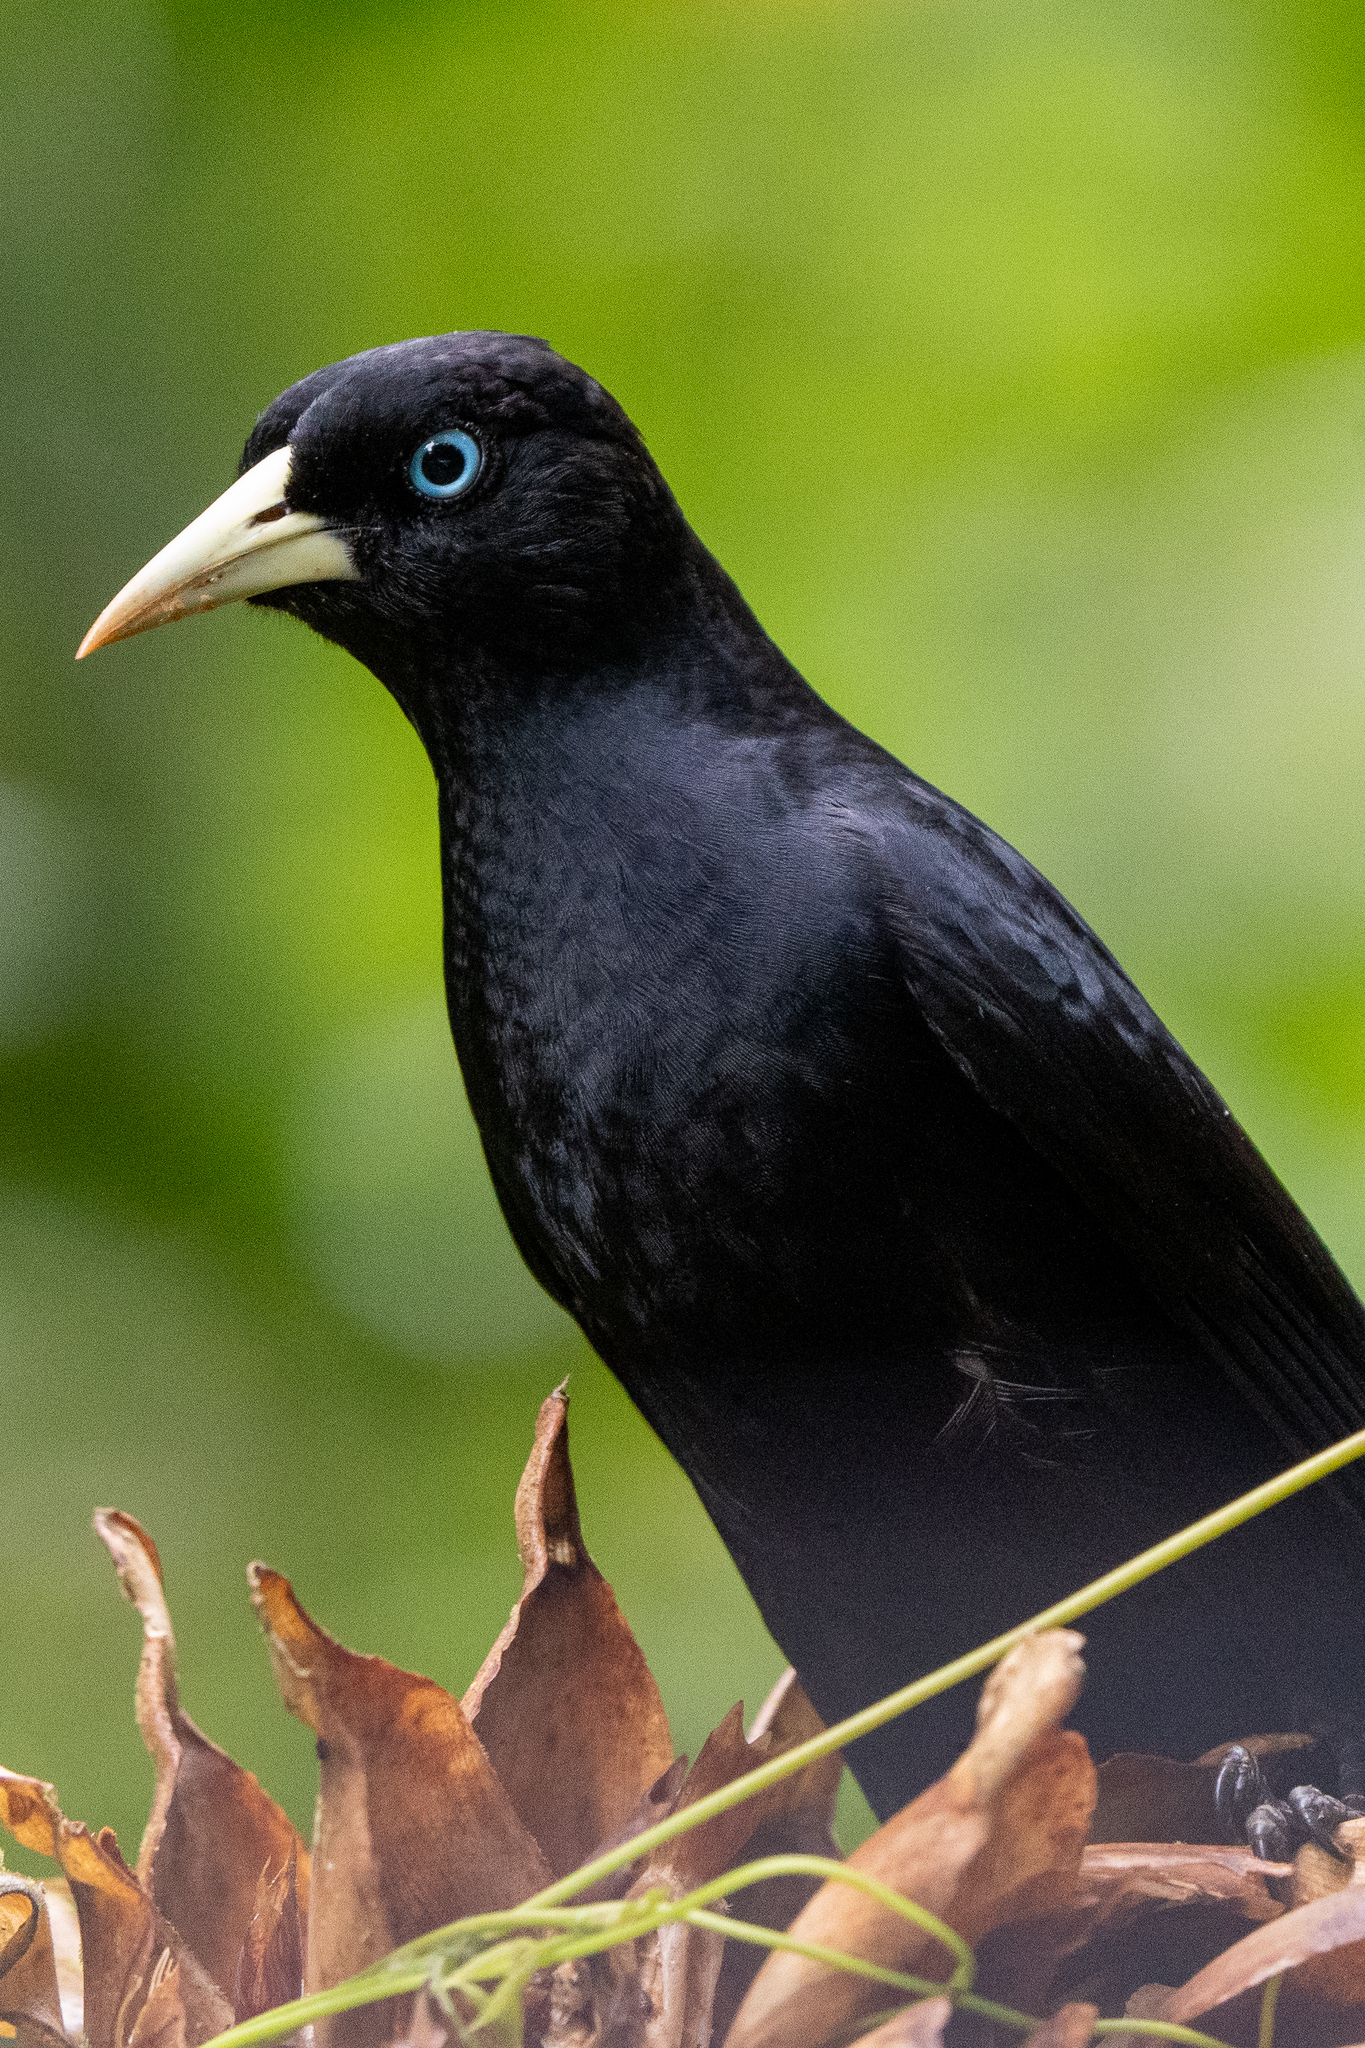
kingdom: Animalia
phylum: Chordata
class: Aves
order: Passeriformes
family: Icteridae
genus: Cacicus
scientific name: Cacicus uropygialis
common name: Scarlet-rumped cacique
